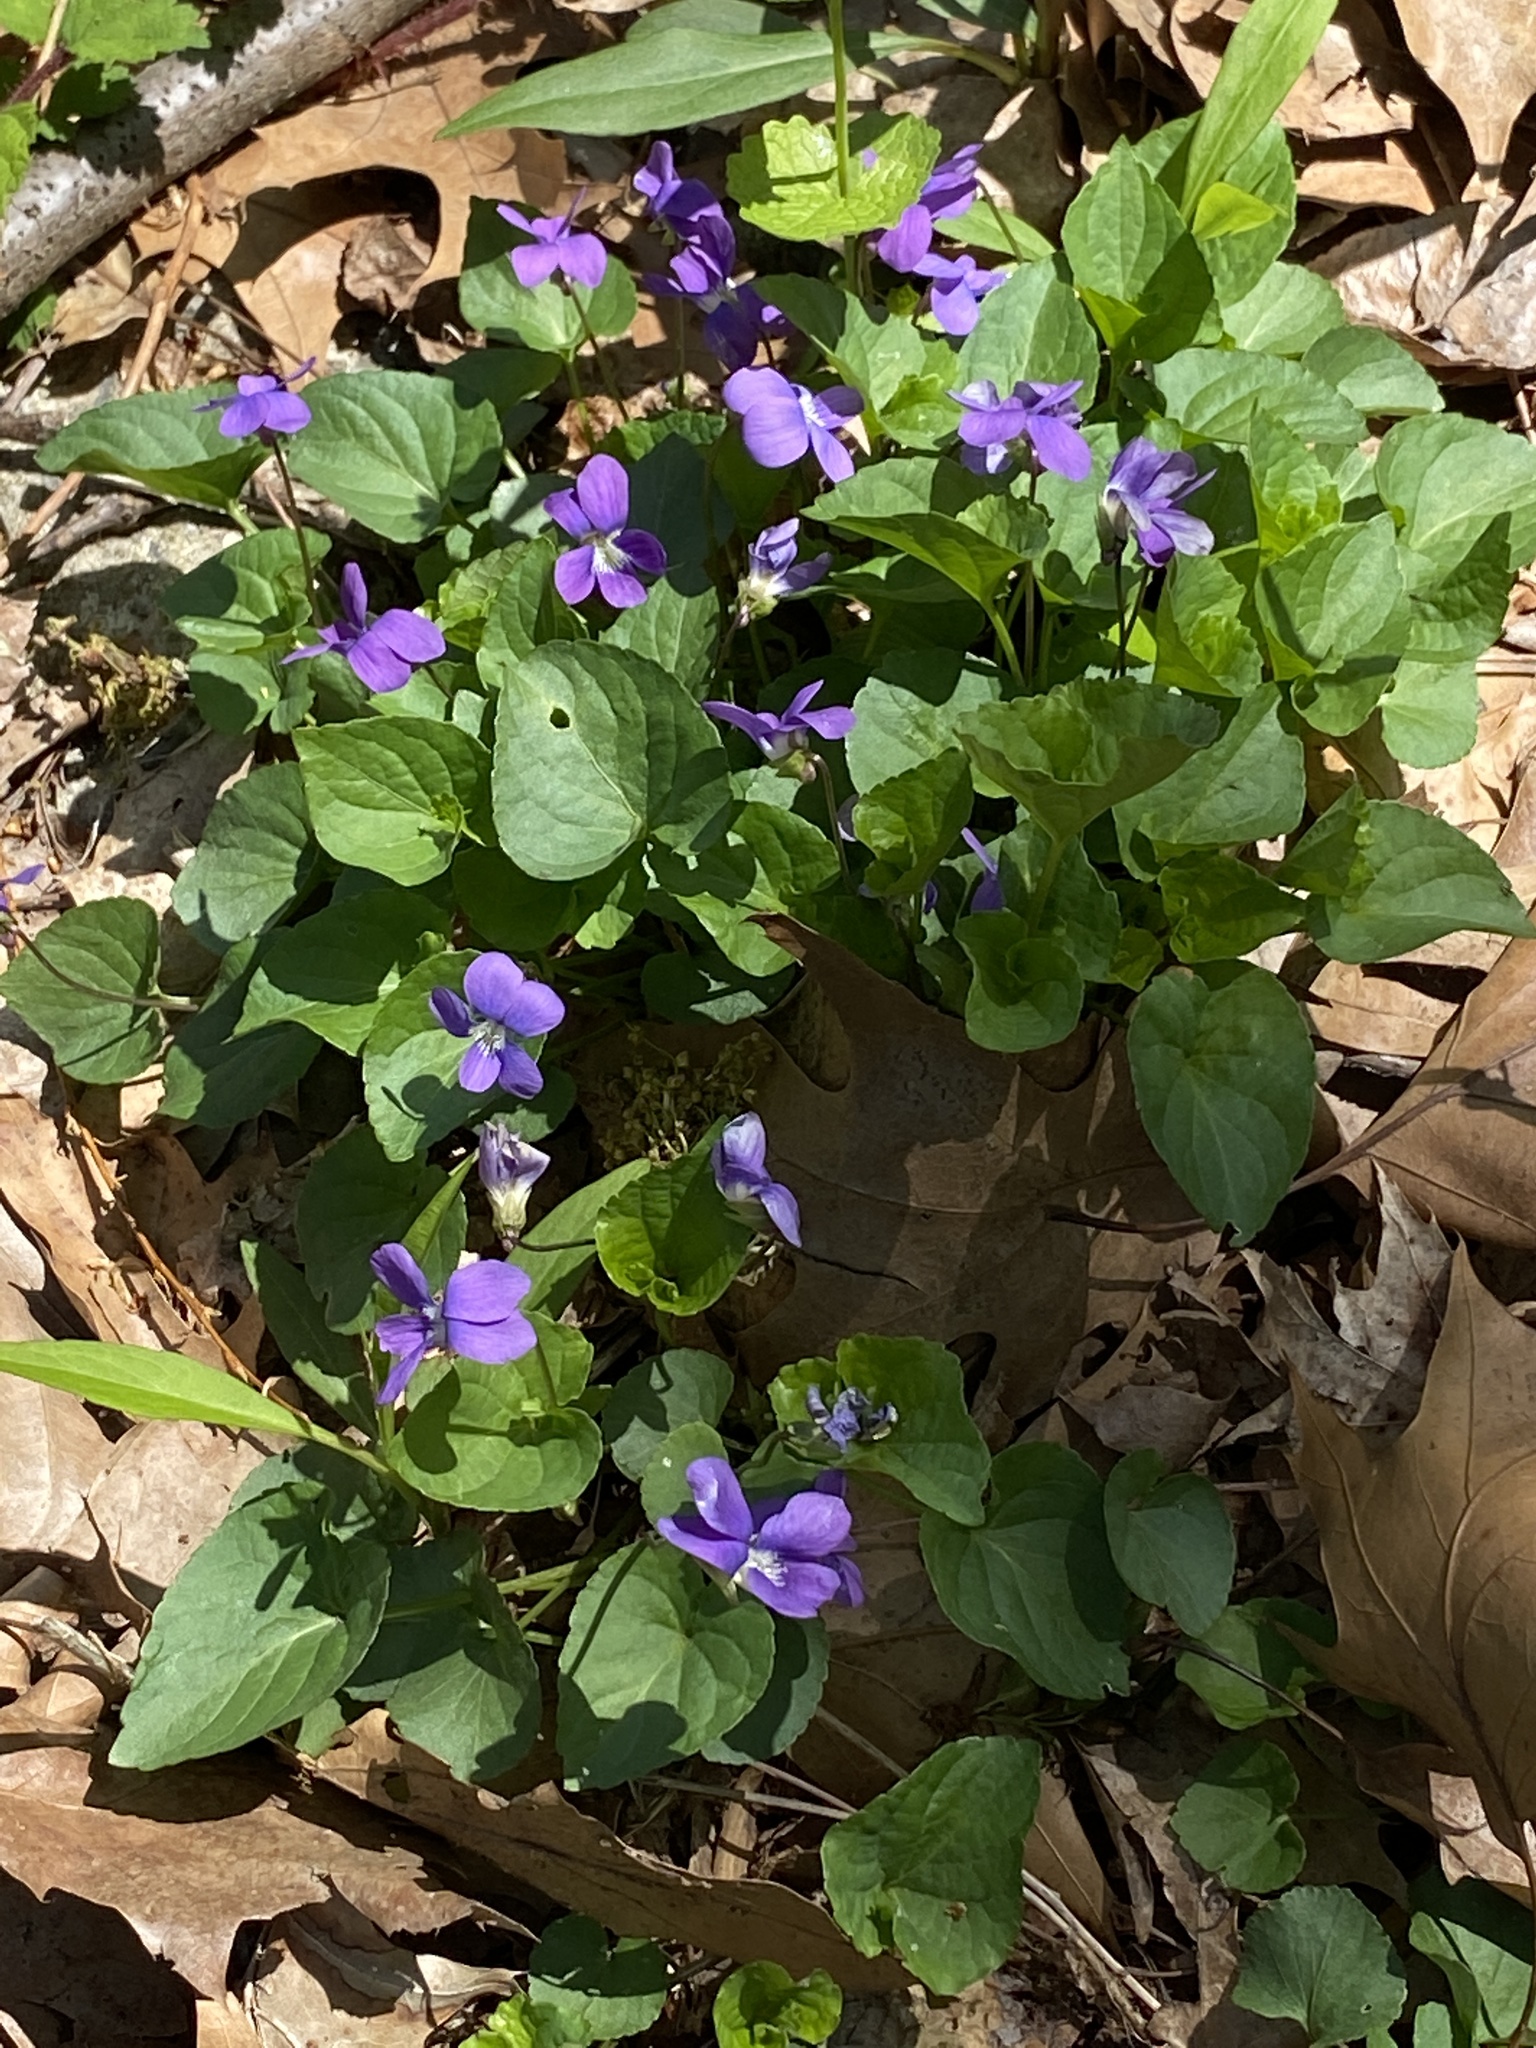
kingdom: Plantae
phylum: Tracheophyta
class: Magnoliopsida
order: Malpighiales
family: Violaceae
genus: Viola
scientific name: Viola sororia
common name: Dooryard violet
